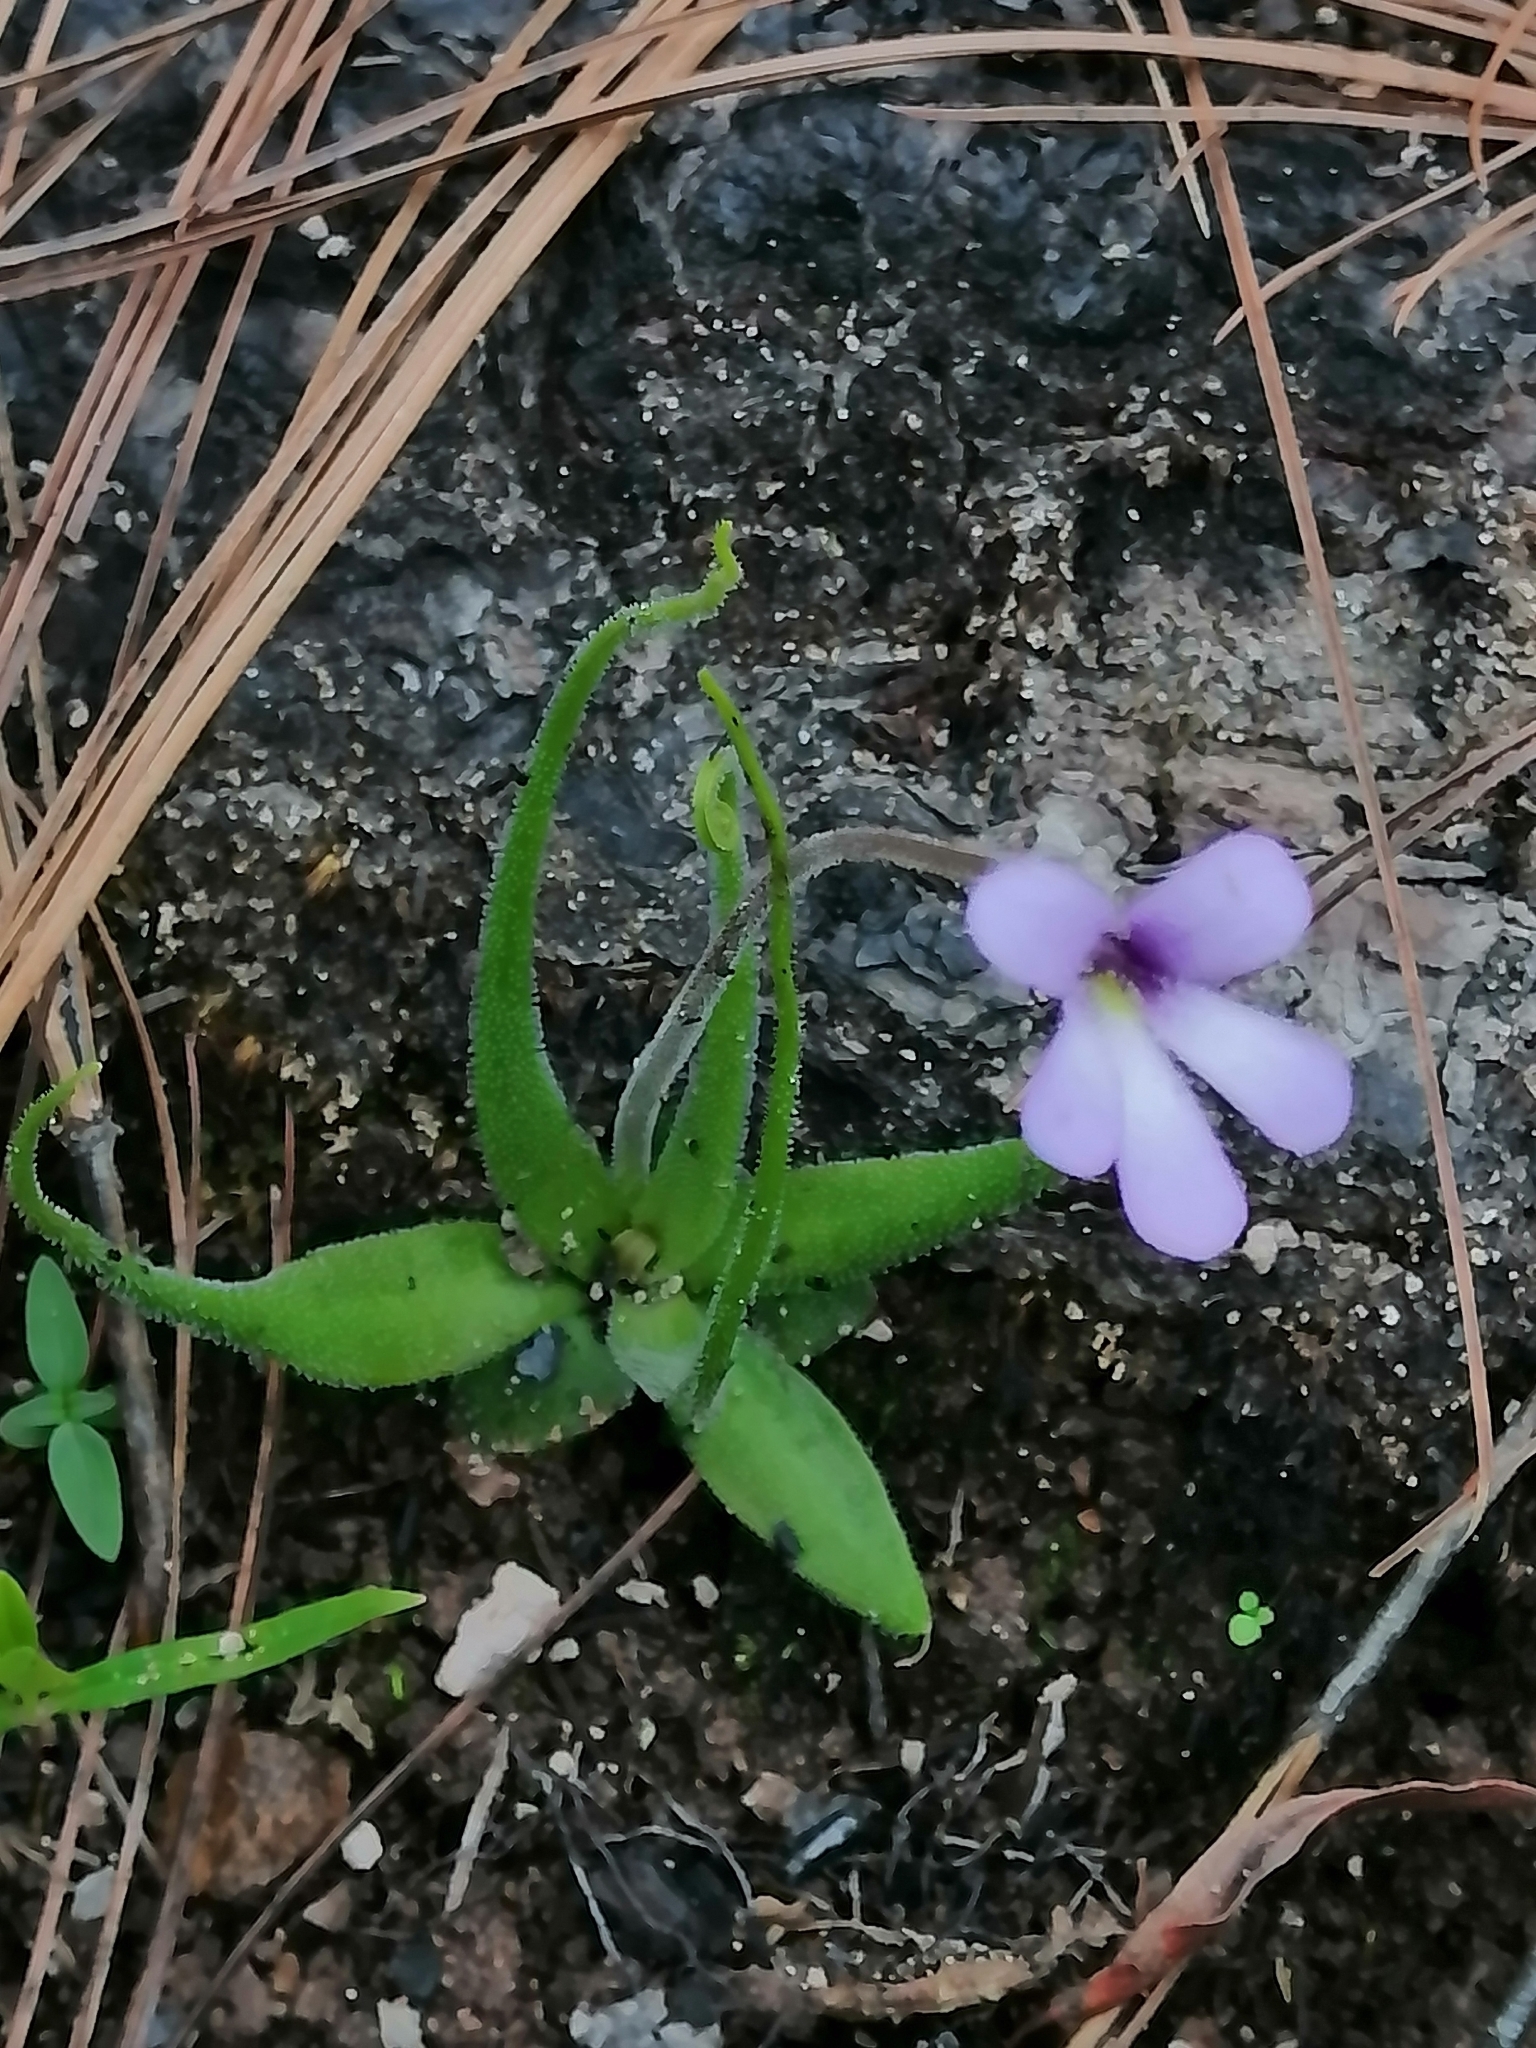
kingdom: Plantae
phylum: Tracheophyta
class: Magnoliopsida
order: Lamiales
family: Lentibulariaceae
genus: Pinguicula
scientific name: Pinguicula heterophylla
